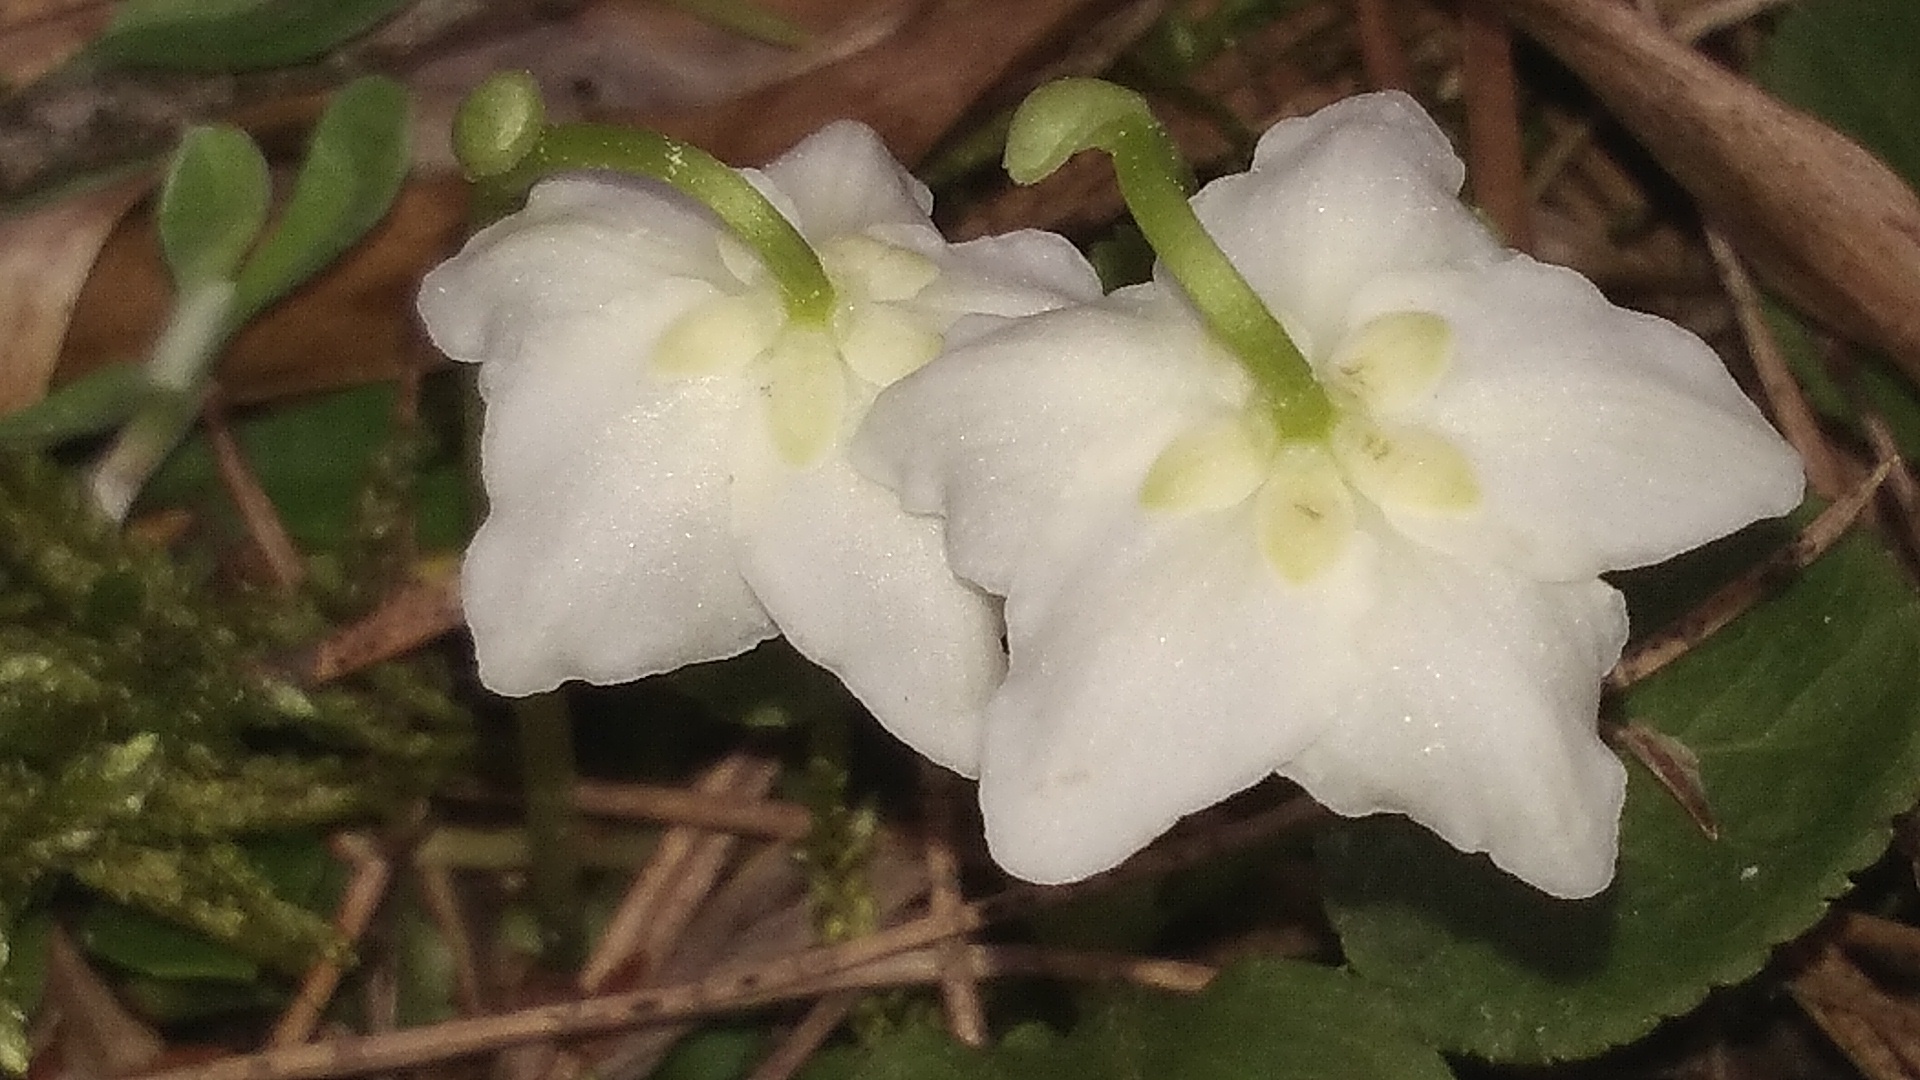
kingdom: Plantae
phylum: Tracheophyta
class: Magnoliopsida
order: Ericales
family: Ericaceae
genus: Moneses
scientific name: Moneses uniflora
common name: One-flowered wintergreen
